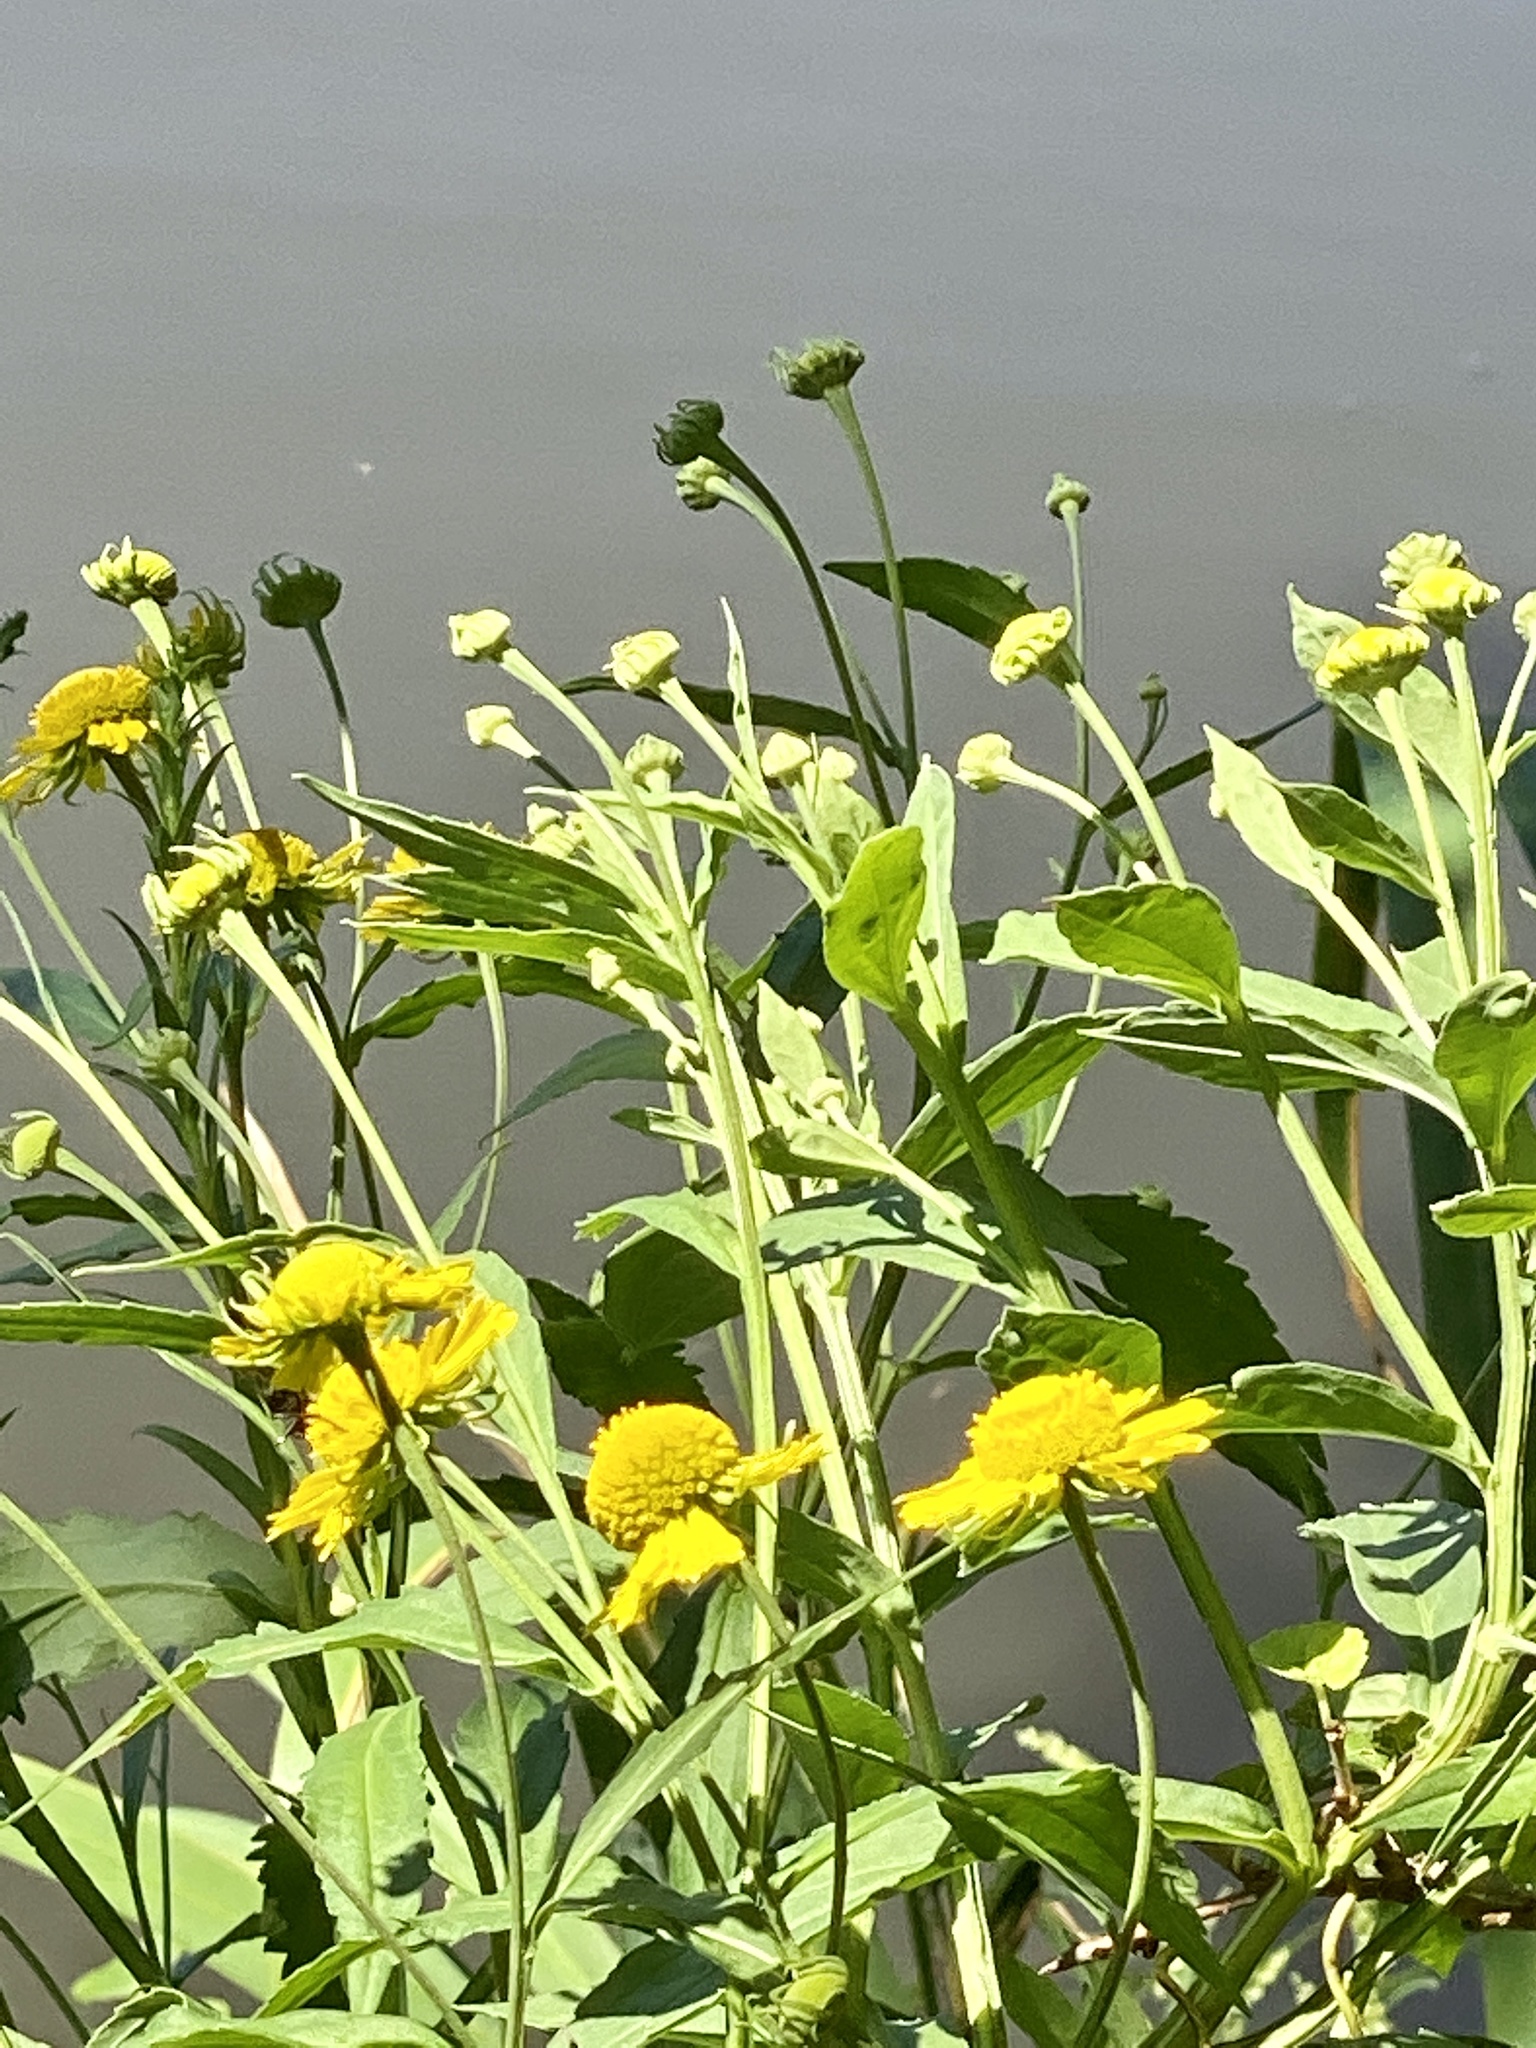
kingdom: Plantae
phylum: Tracheophyta
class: Magnoliopsida
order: Asterales
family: Asteraceae
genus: Helenium
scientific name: Helenium autumnale
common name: Sneezeweed
